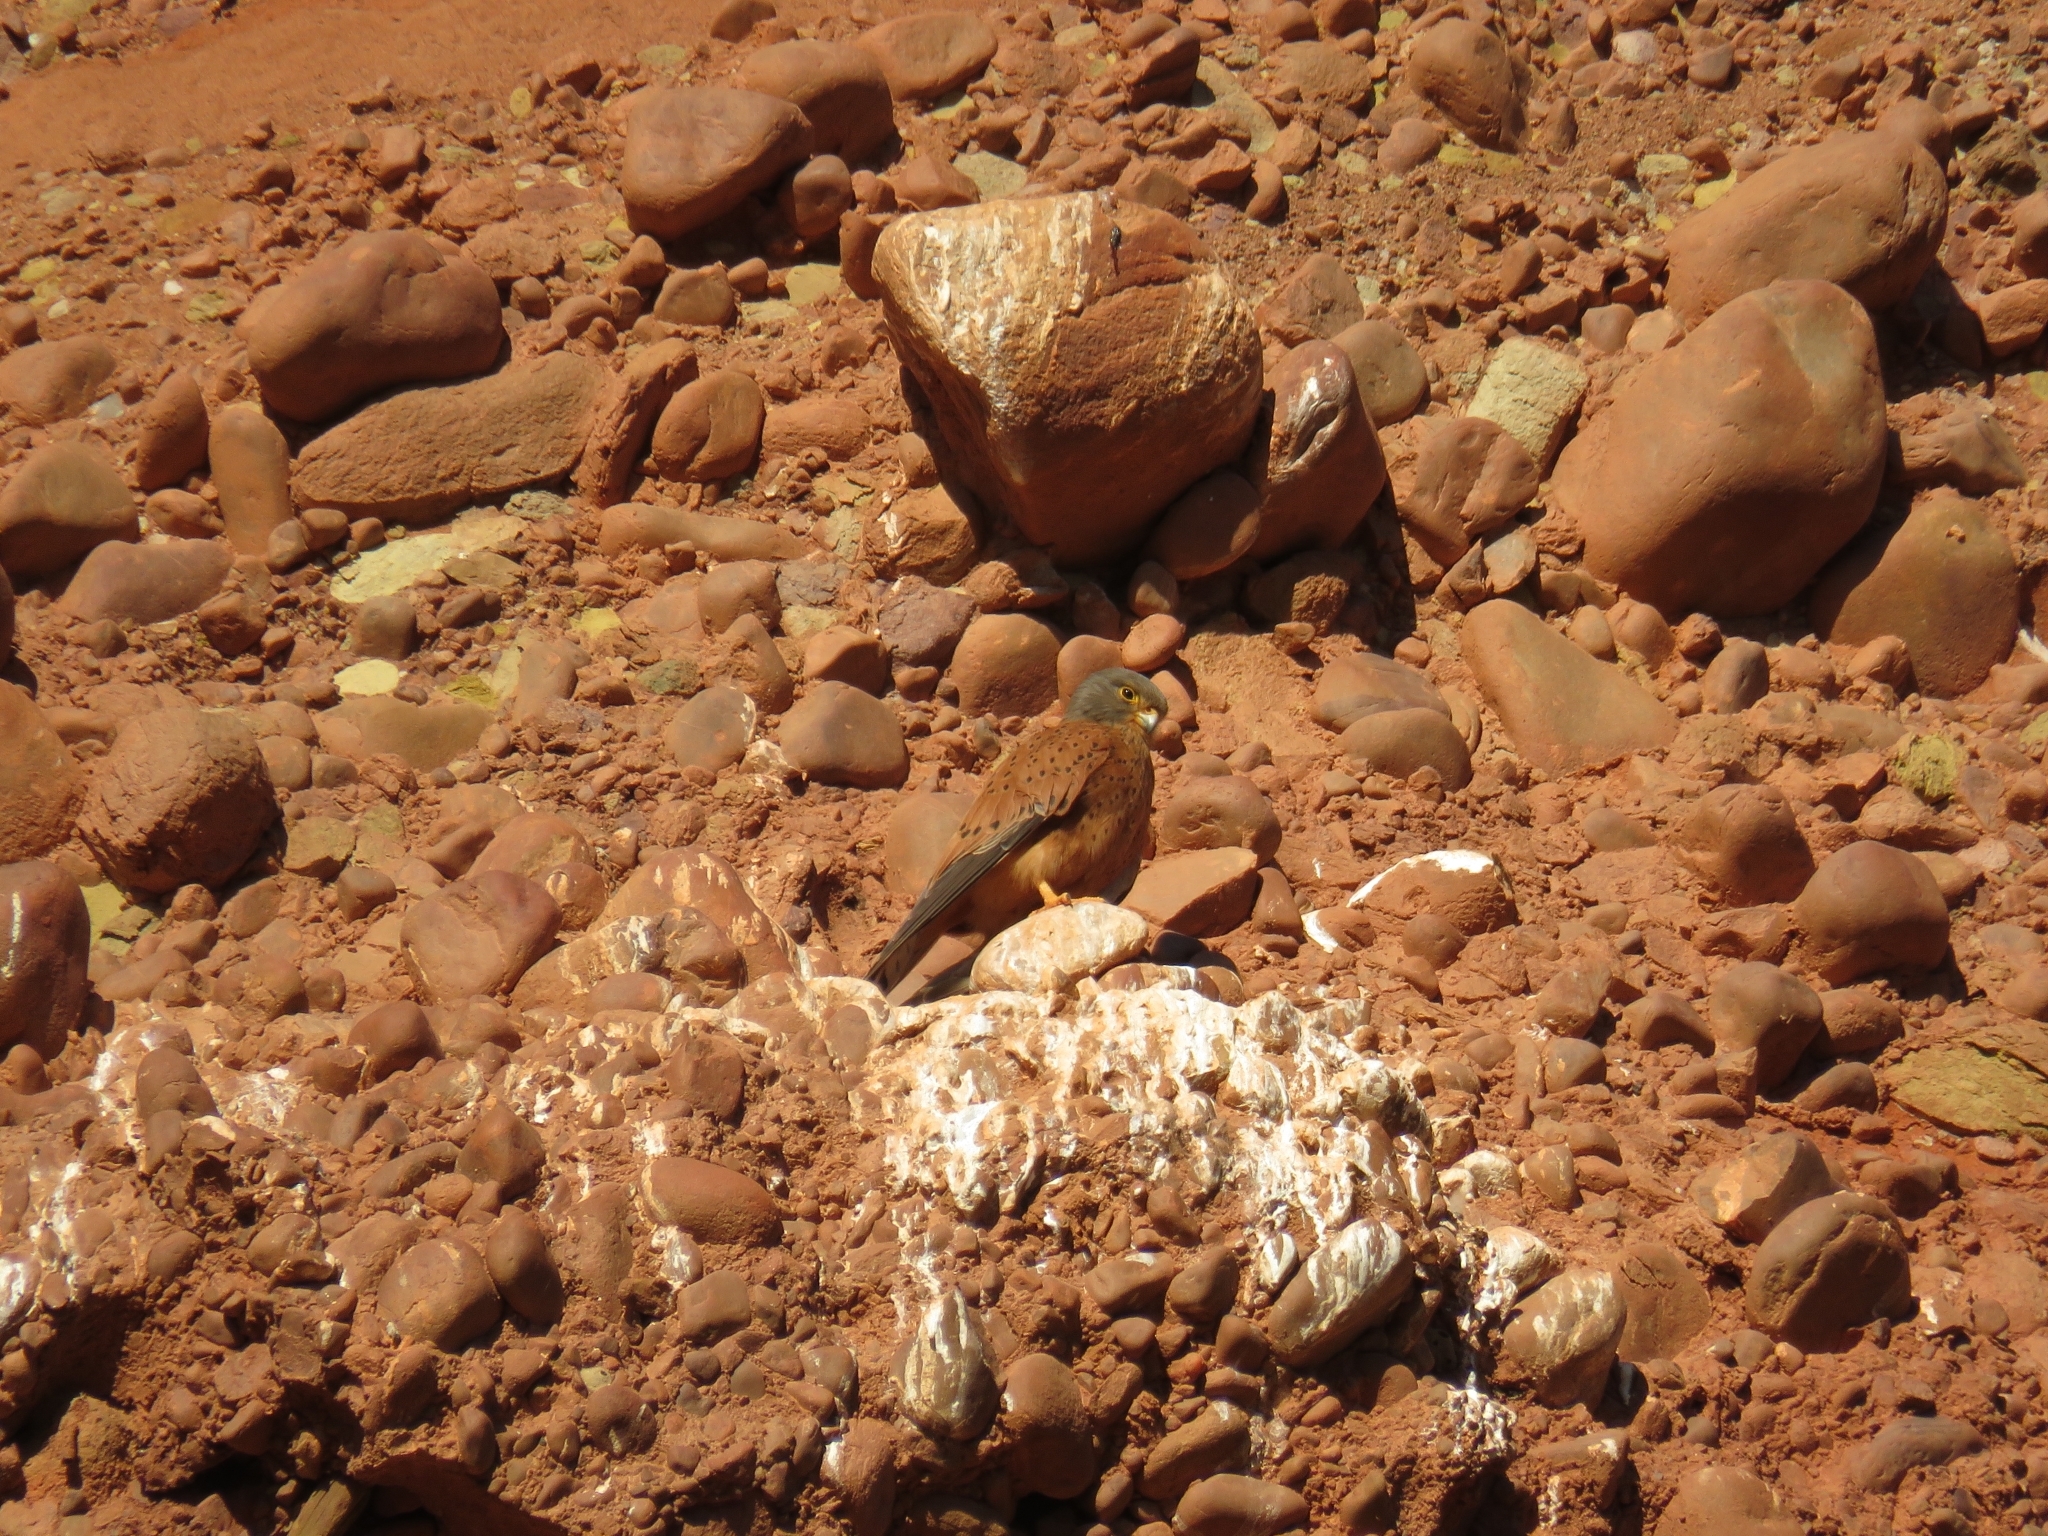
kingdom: Animalia
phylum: Chordata
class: Aves
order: Falconiformes
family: Falconidae
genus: Falco
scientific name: Falco rupicolus
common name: Rock kestrel
